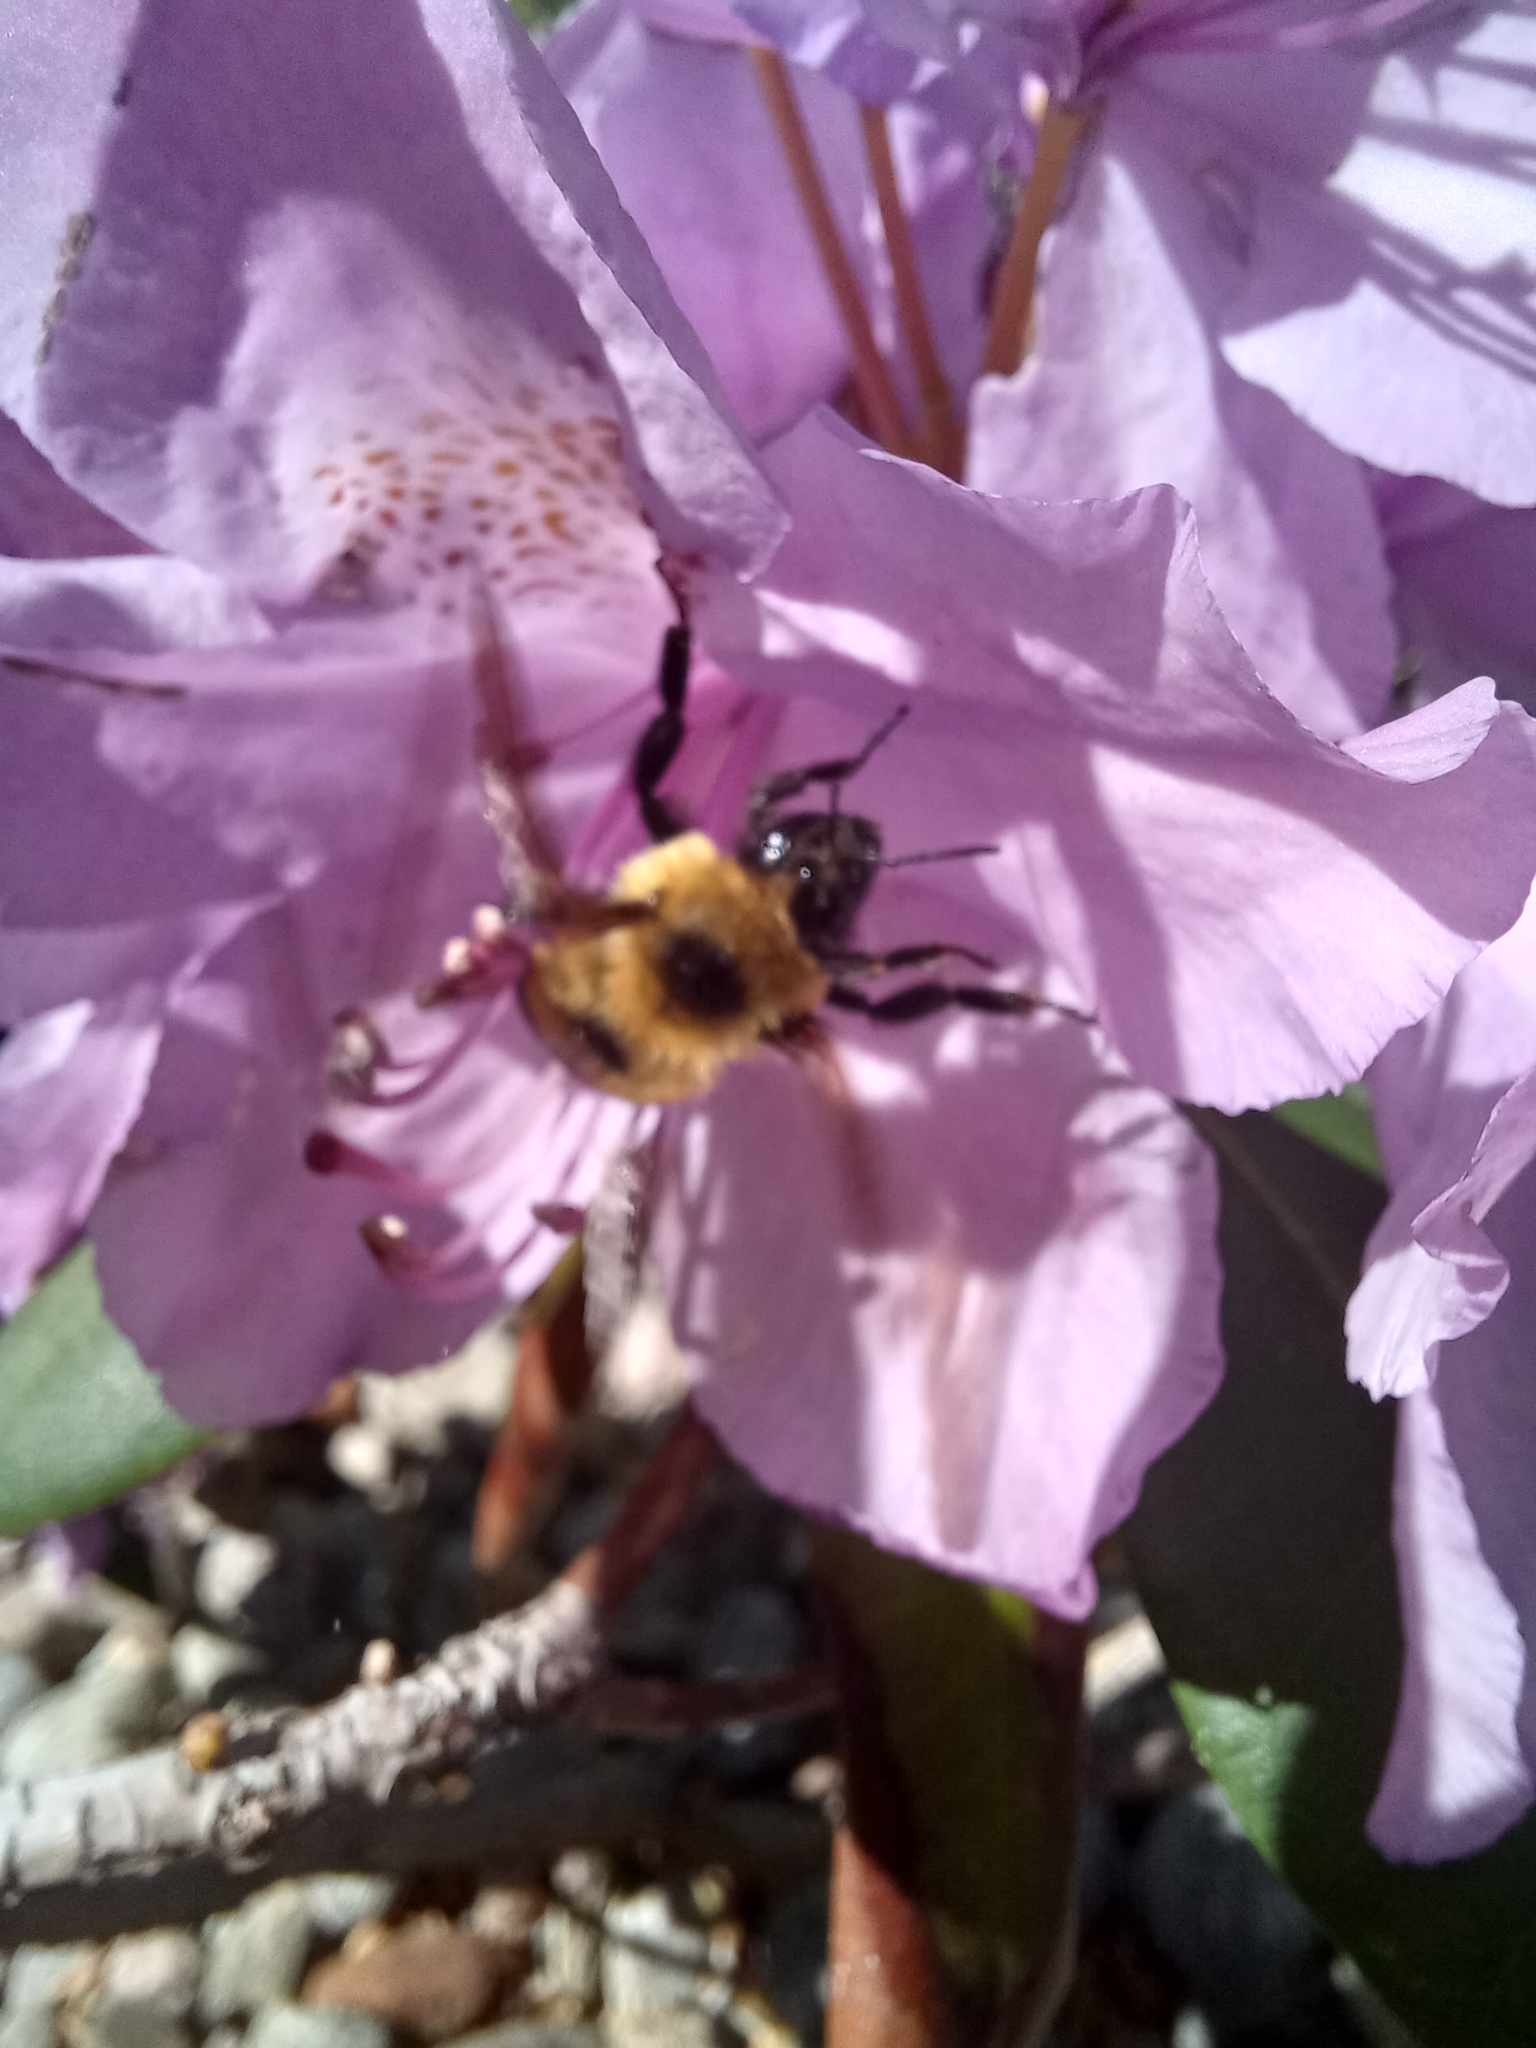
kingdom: Animalia
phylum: Arthropoda
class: Insecta
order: Hymenoptera
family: Apidae
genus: Bombus
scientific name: Bombus rufocinctus
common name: Red-belted bumble bee
